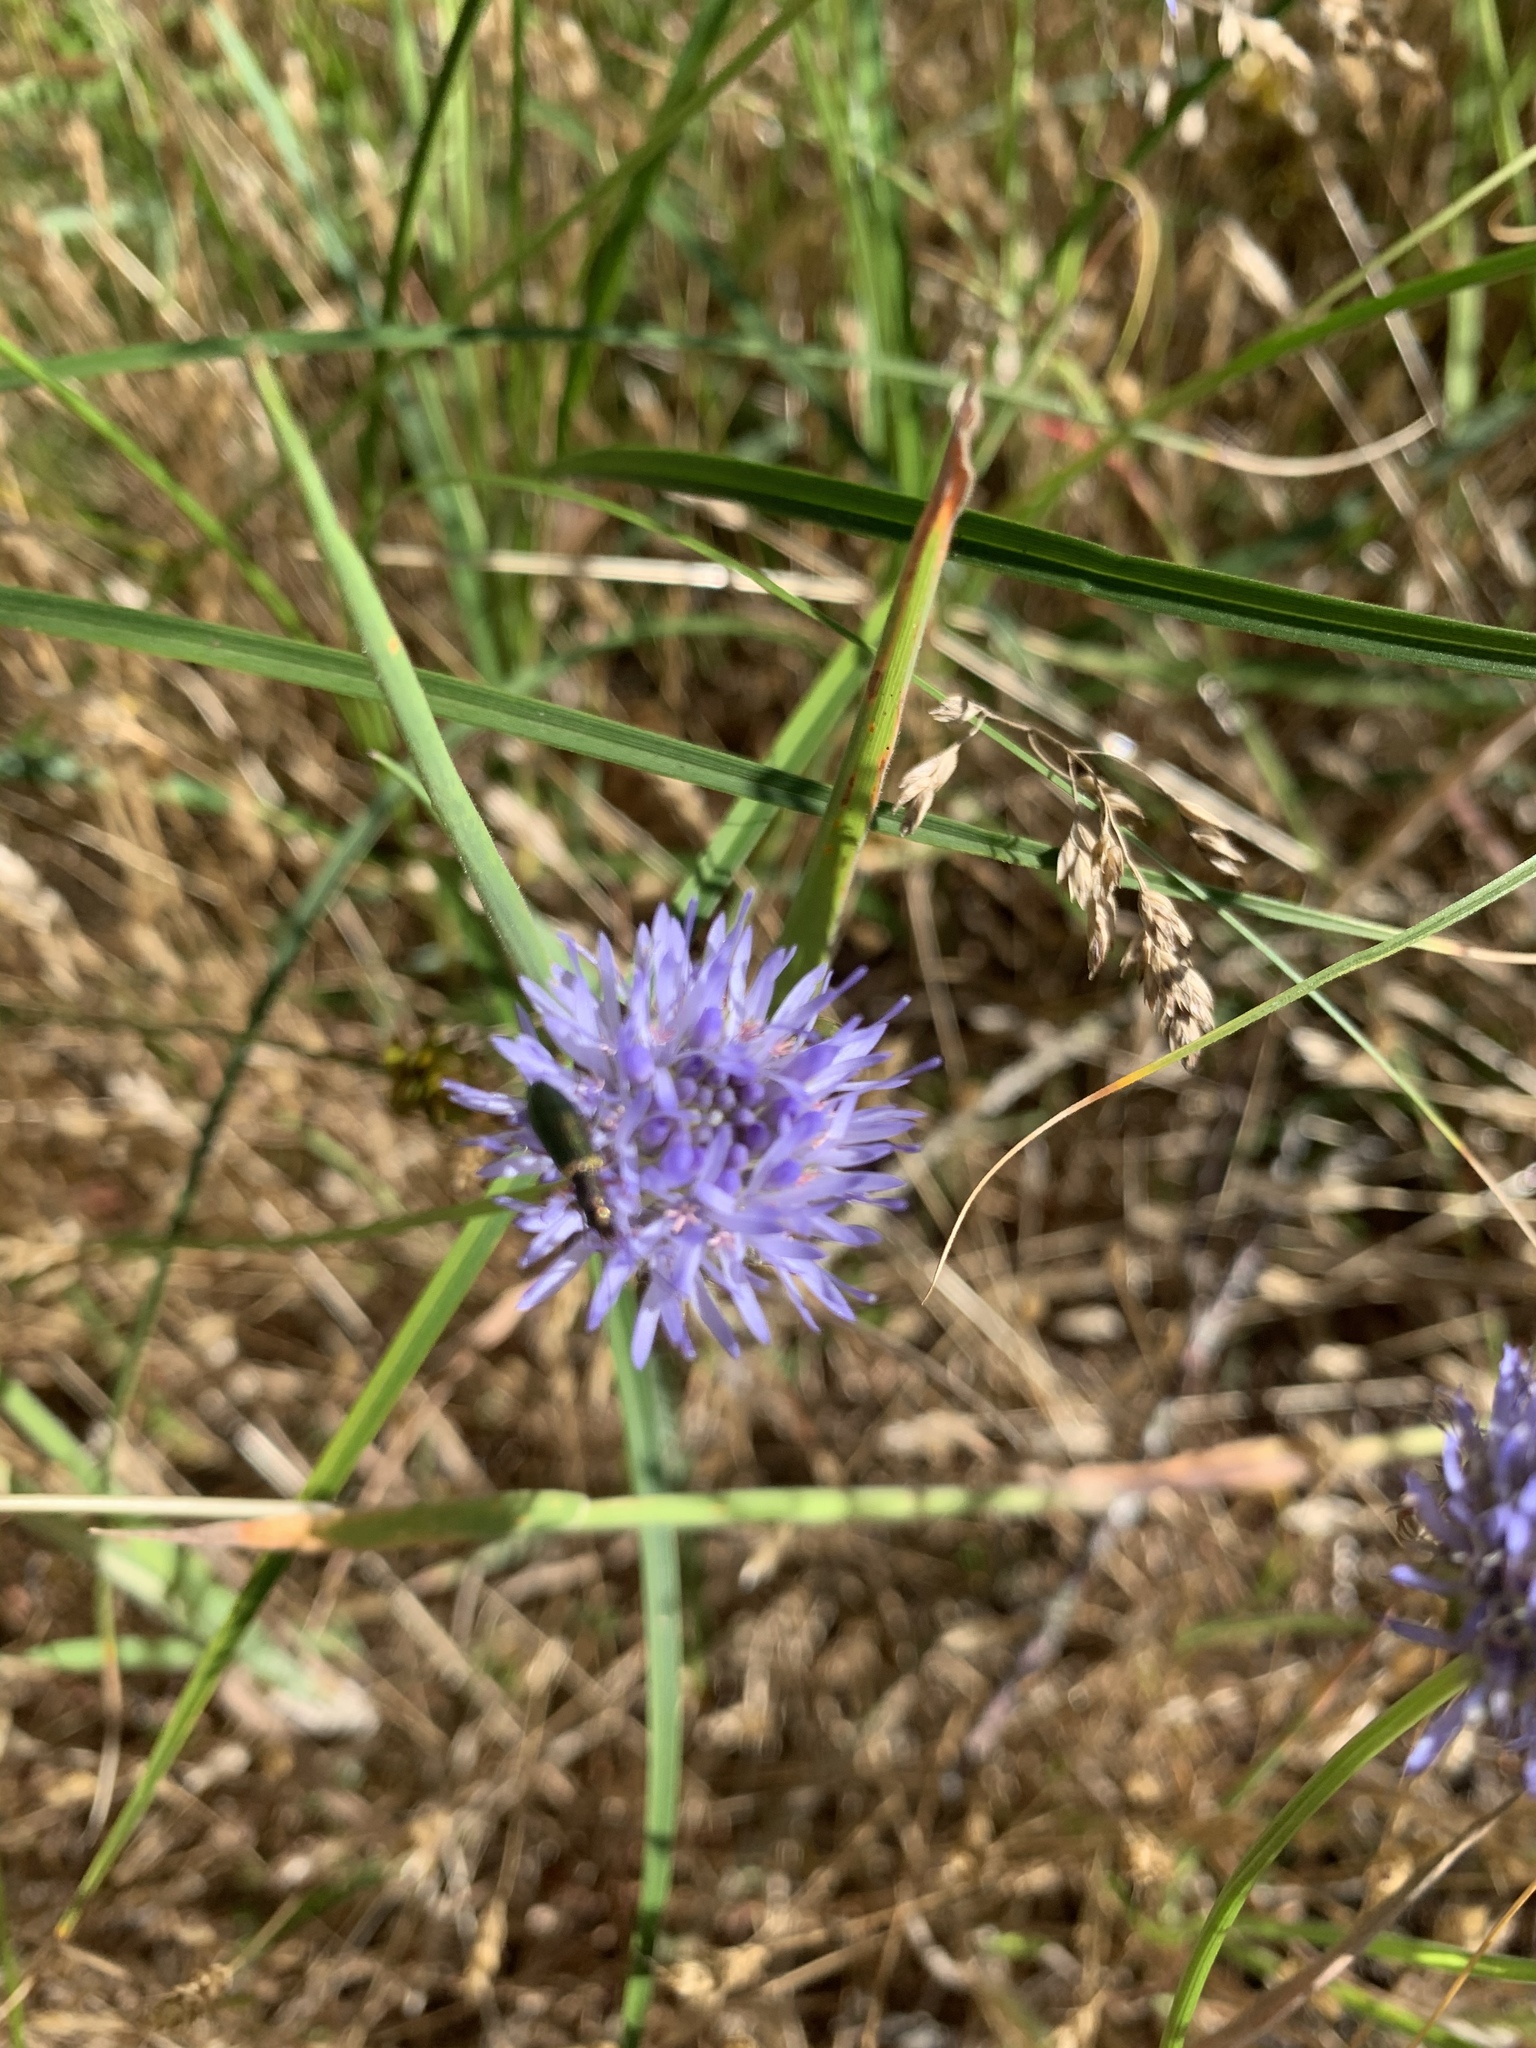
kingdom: Plantae
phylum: Tracheophyta
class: Magnoliopsida
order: Asterales
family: Campanulaceae
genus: Jasione
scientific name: Jasione montana
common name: Sheep's-bit
